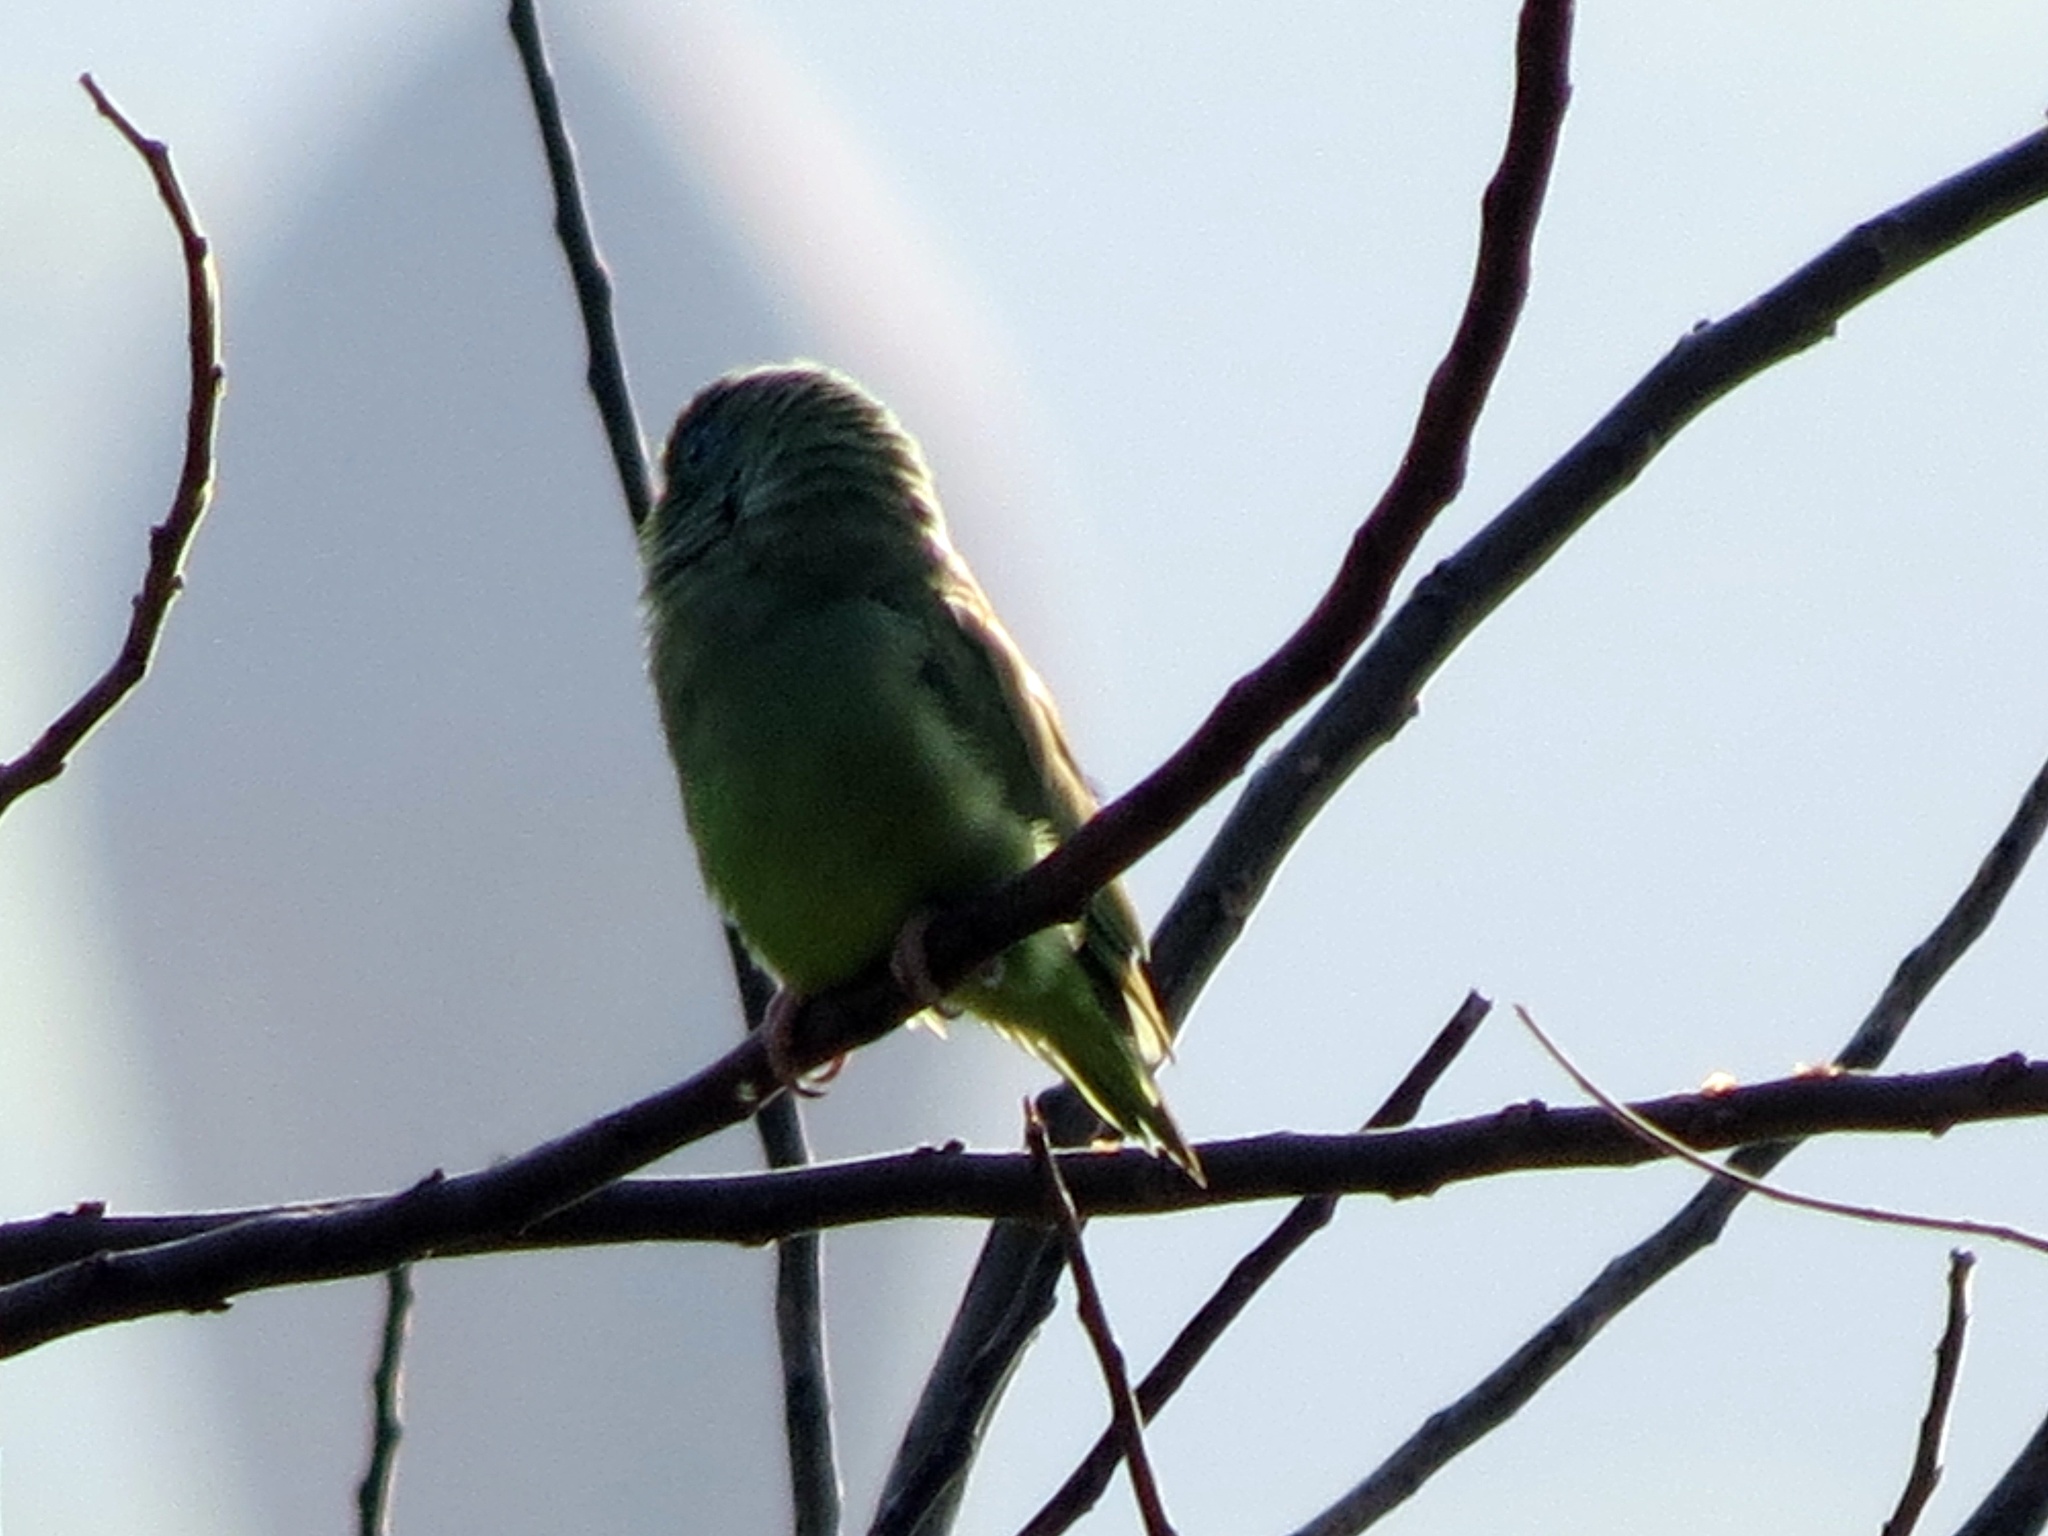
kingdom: Animalia
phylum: Chordata
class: Aves
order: Psittaciformes
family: Psittacidae
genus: Forpus
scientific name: Forpus conspicillatus
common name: Spectacled parrotlet
